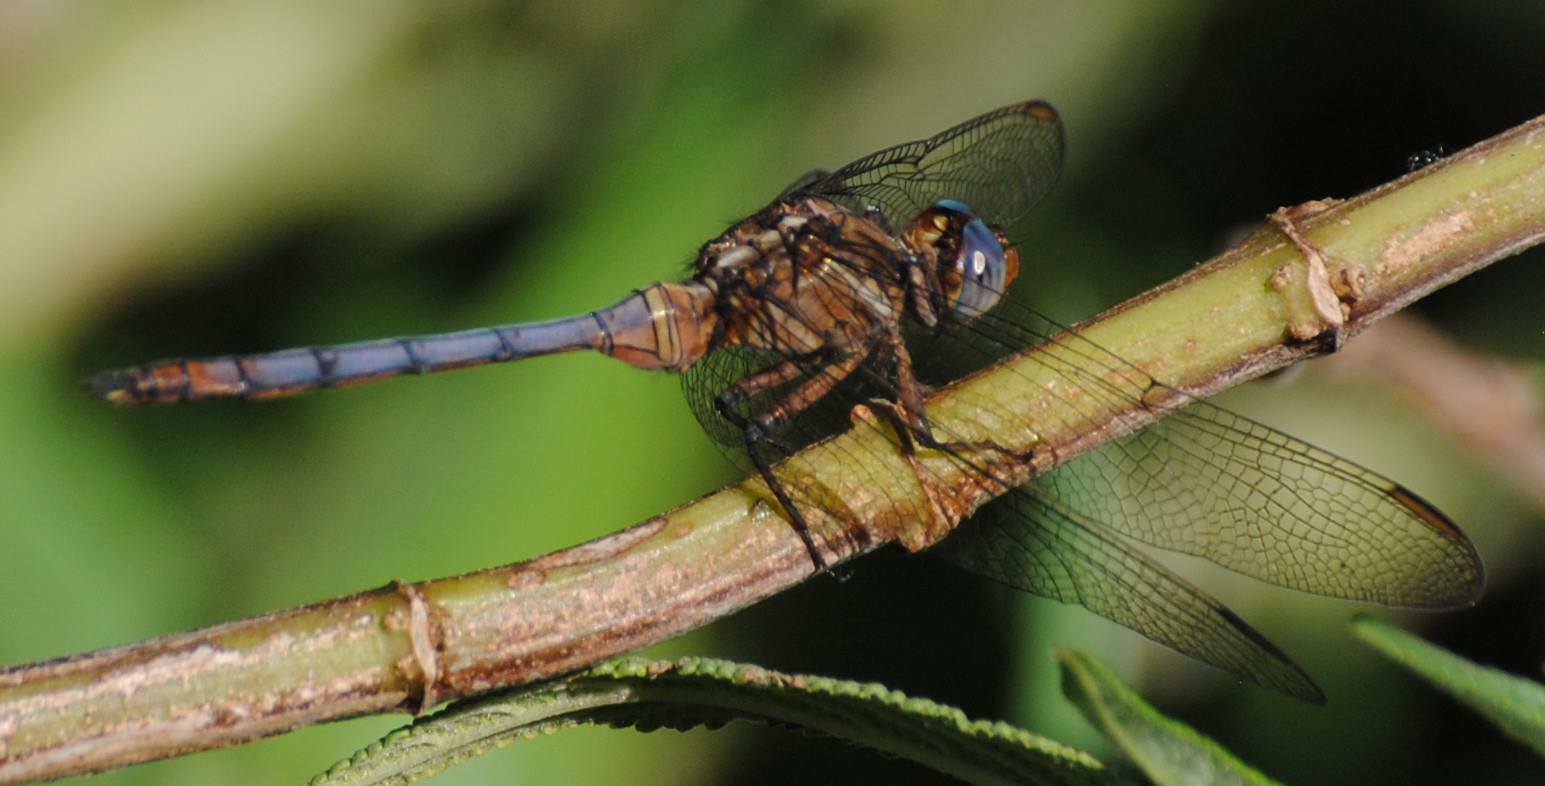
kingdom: Animalia
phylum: Arthropoda
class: Insecta
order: Odonata
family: Libellulidae
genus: Orthetrum
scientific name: Orthetrum julia
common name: Julia skimmer
